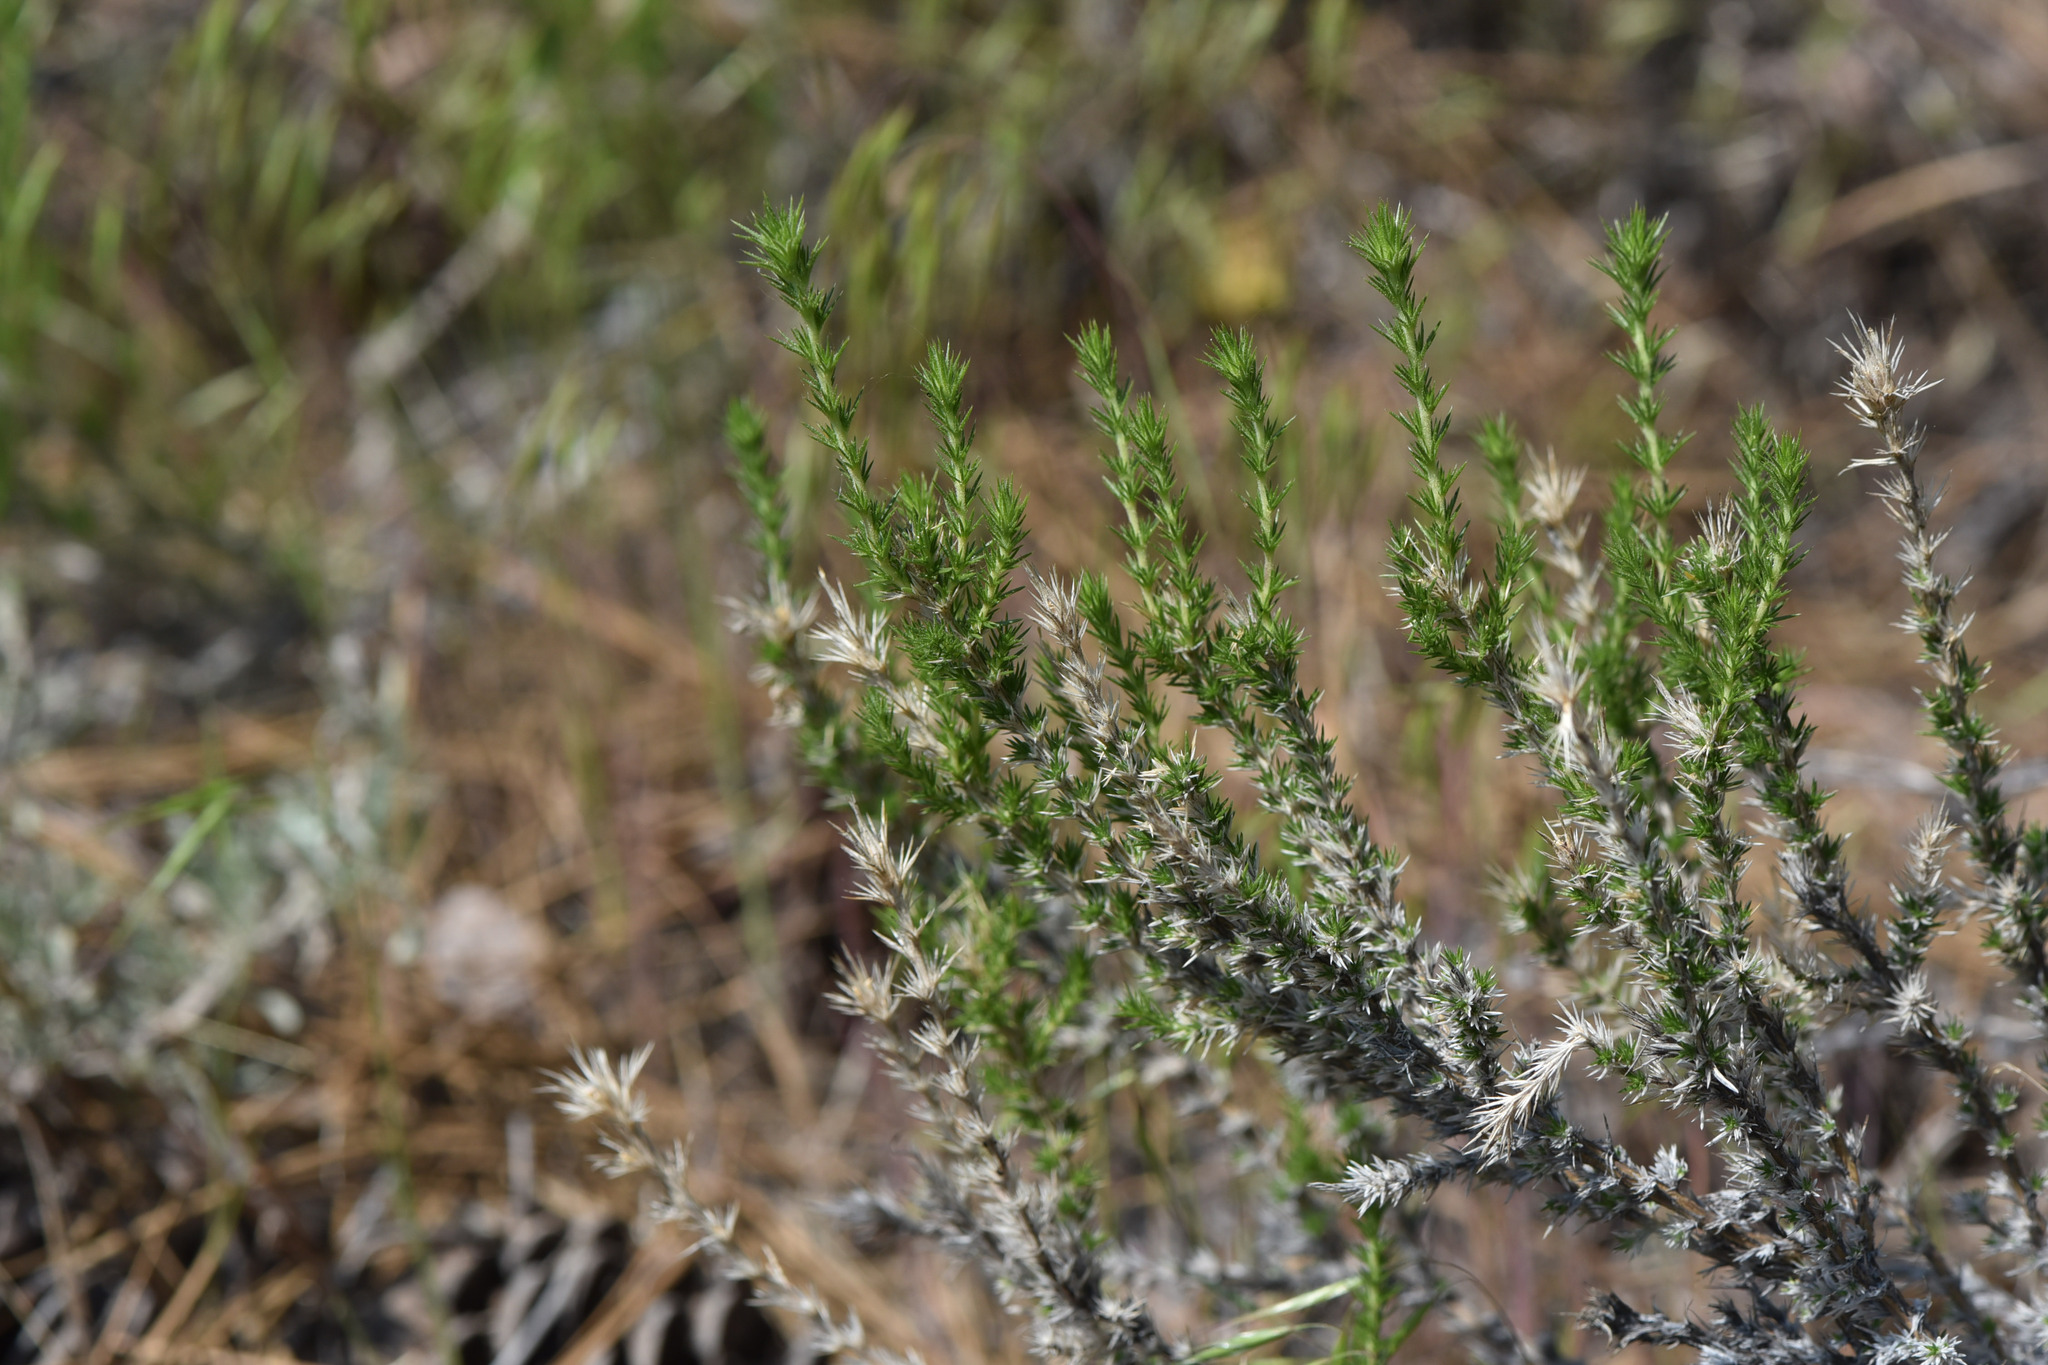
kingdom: Plantae
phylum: Tracheophyta
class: Magnoliopsida
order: Ericales
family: Polemoniaceae
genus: Linanthus
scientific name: Linanthus pungens
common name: Granite prickly phlox
